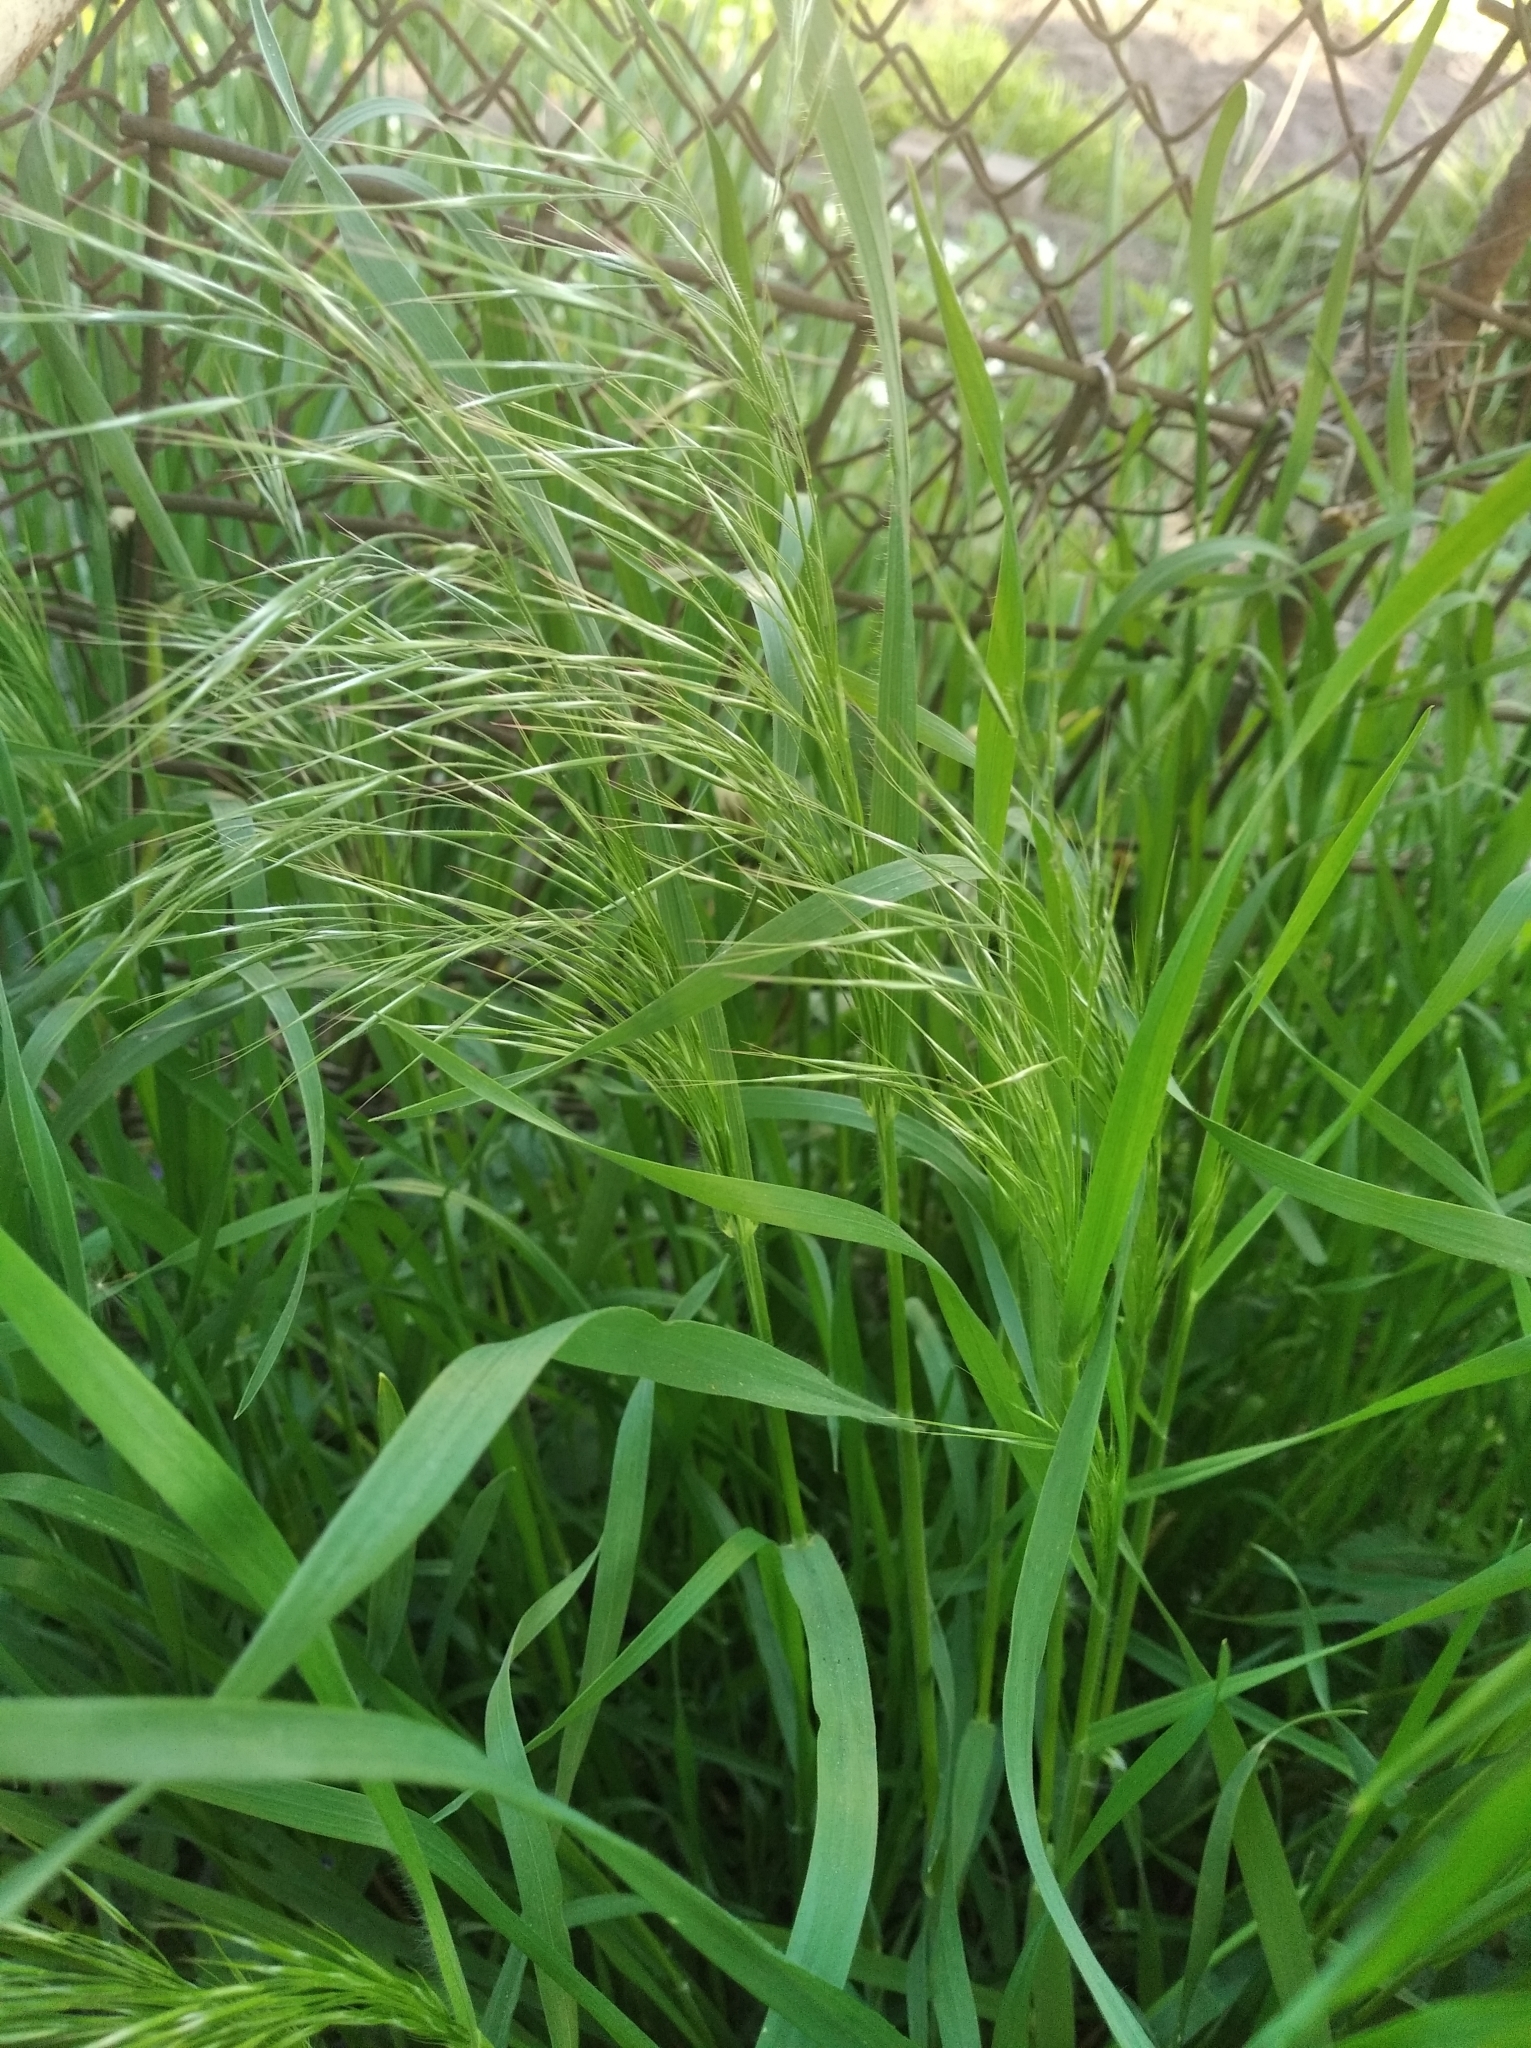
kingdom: Plantae
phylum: Tracheophyta
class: Liliopsida
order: Poales
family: Poaceae
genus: Bromus
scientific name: Bromus tectorum
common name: Cheatgrass
